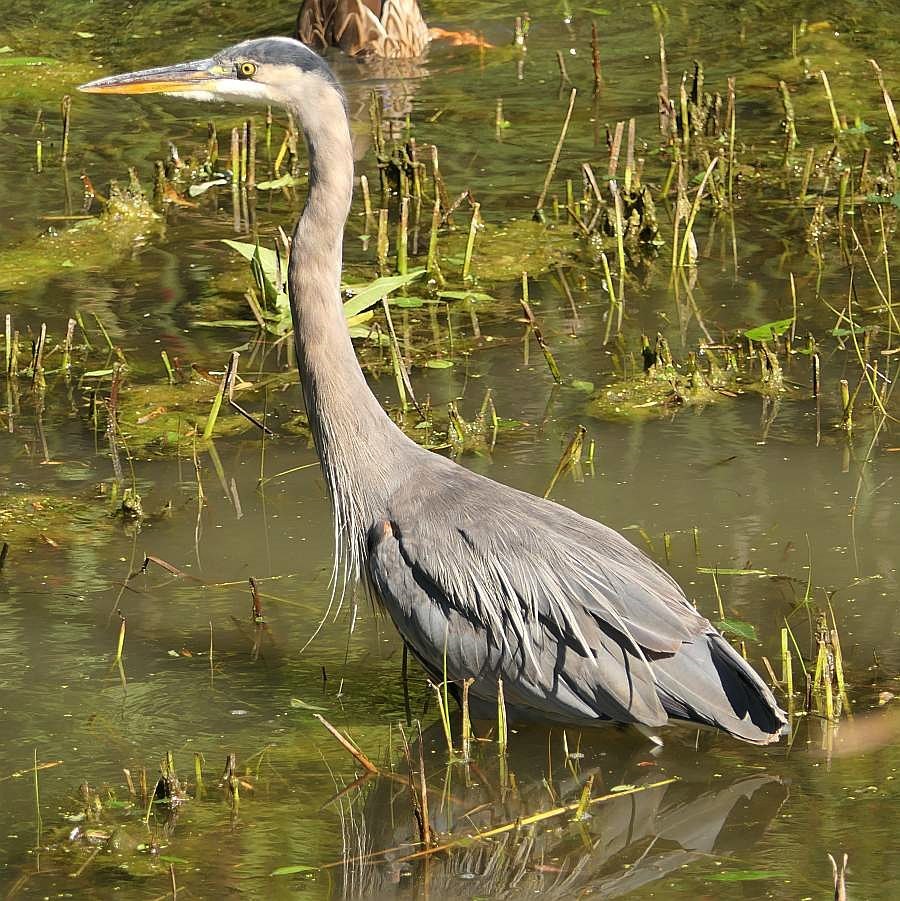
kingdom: Animalia
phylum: Chordata
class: Aves
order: Pelecaniformes
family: Ardeidae
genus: Ardea
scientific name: Ardea herodias
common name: Great blue heron
